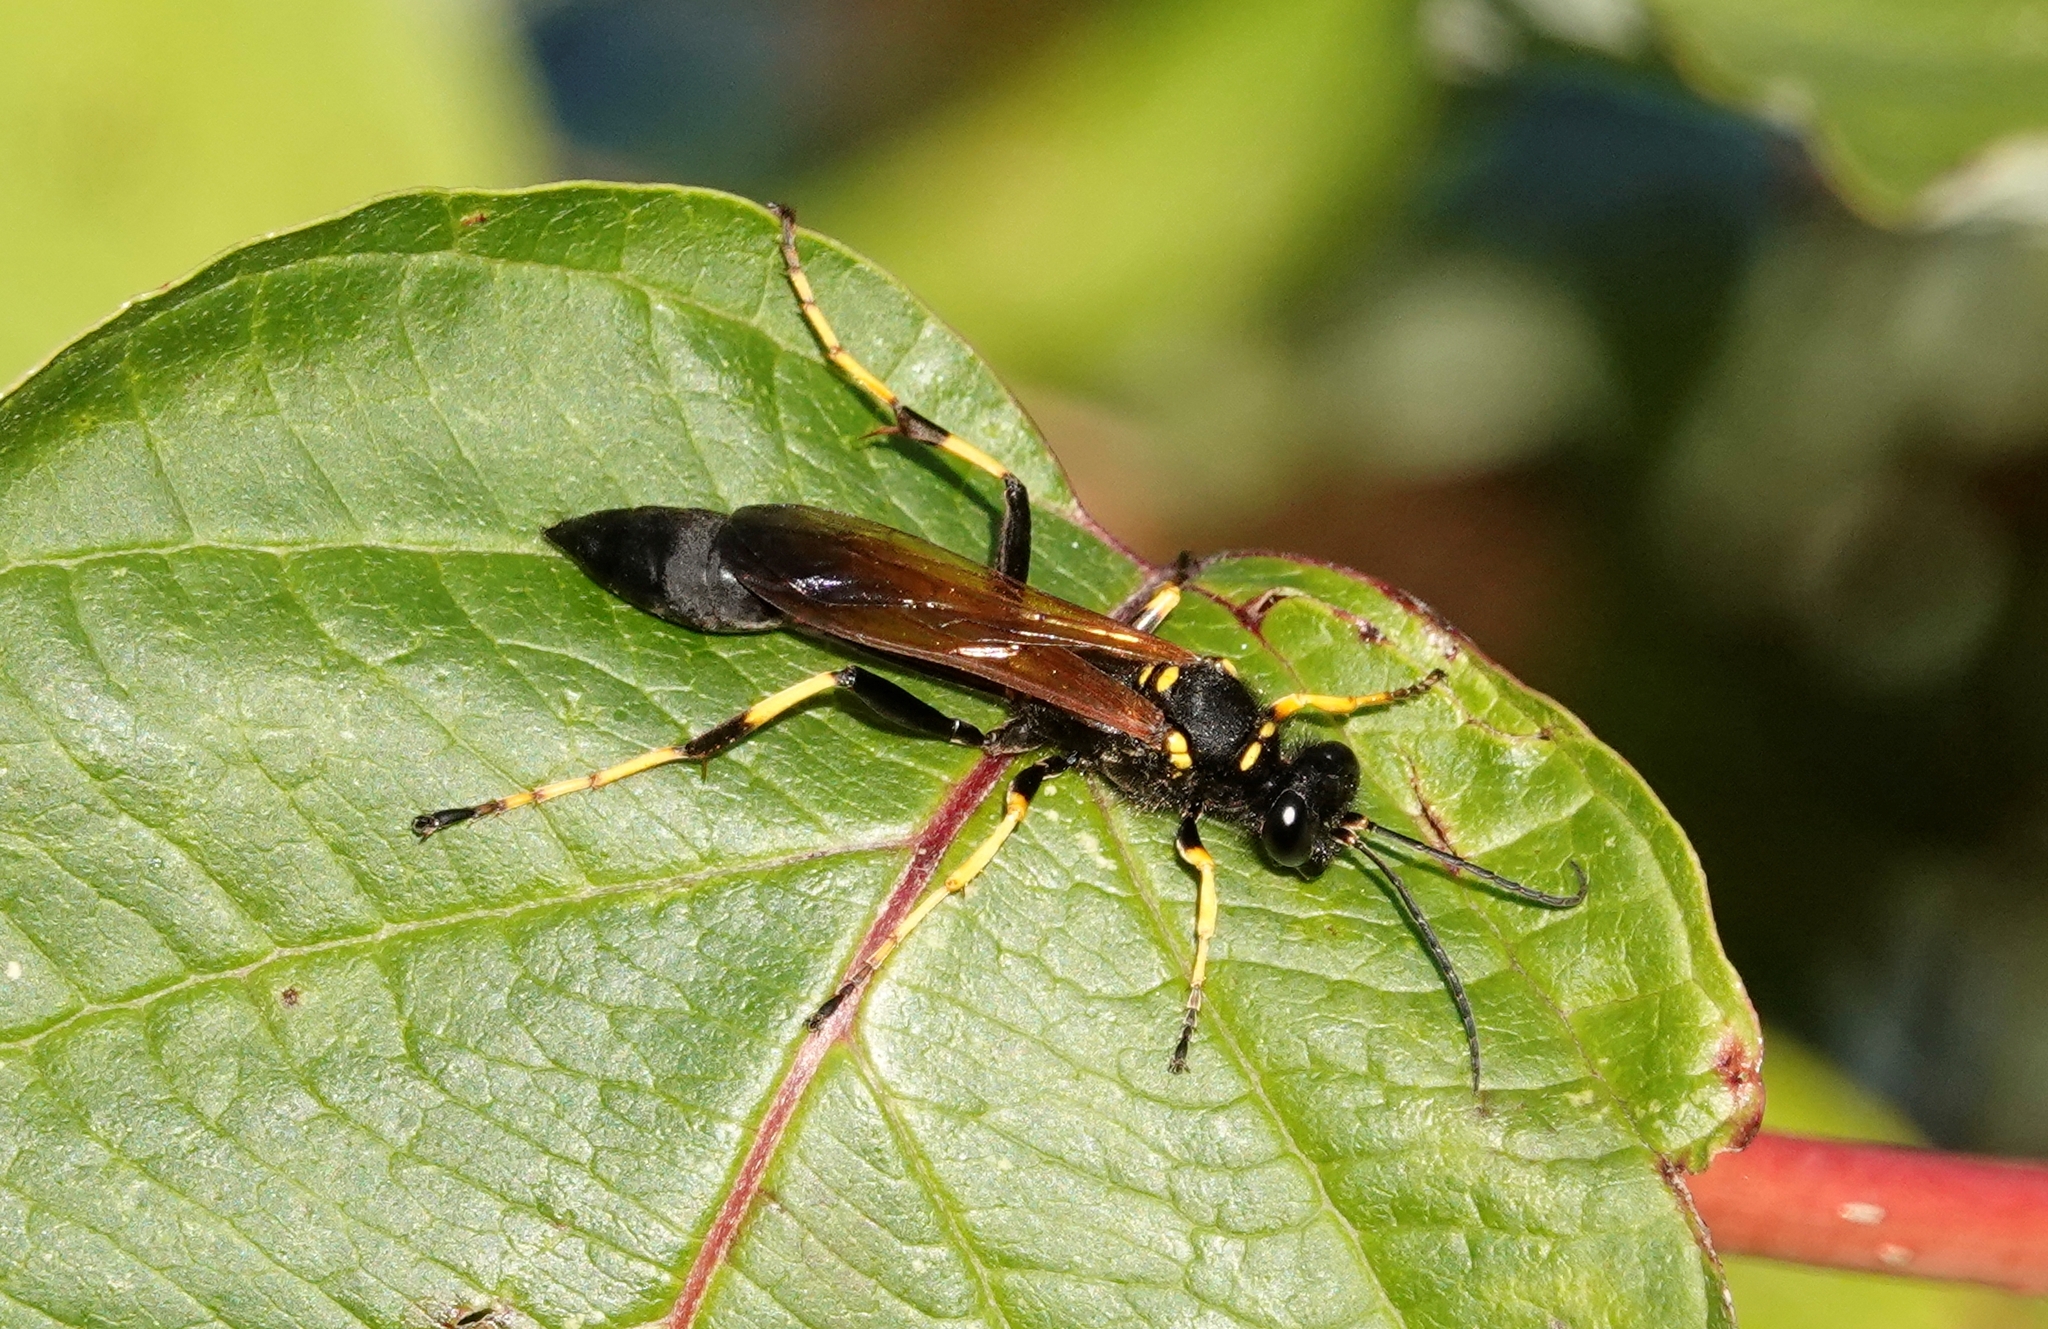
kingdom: Animalia
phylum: Arthropoda
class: Insecta
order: Hymenoptera
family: Sphecidae
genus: Sceliphron
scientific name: Sceliphron caementarium
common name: Mud dauber
